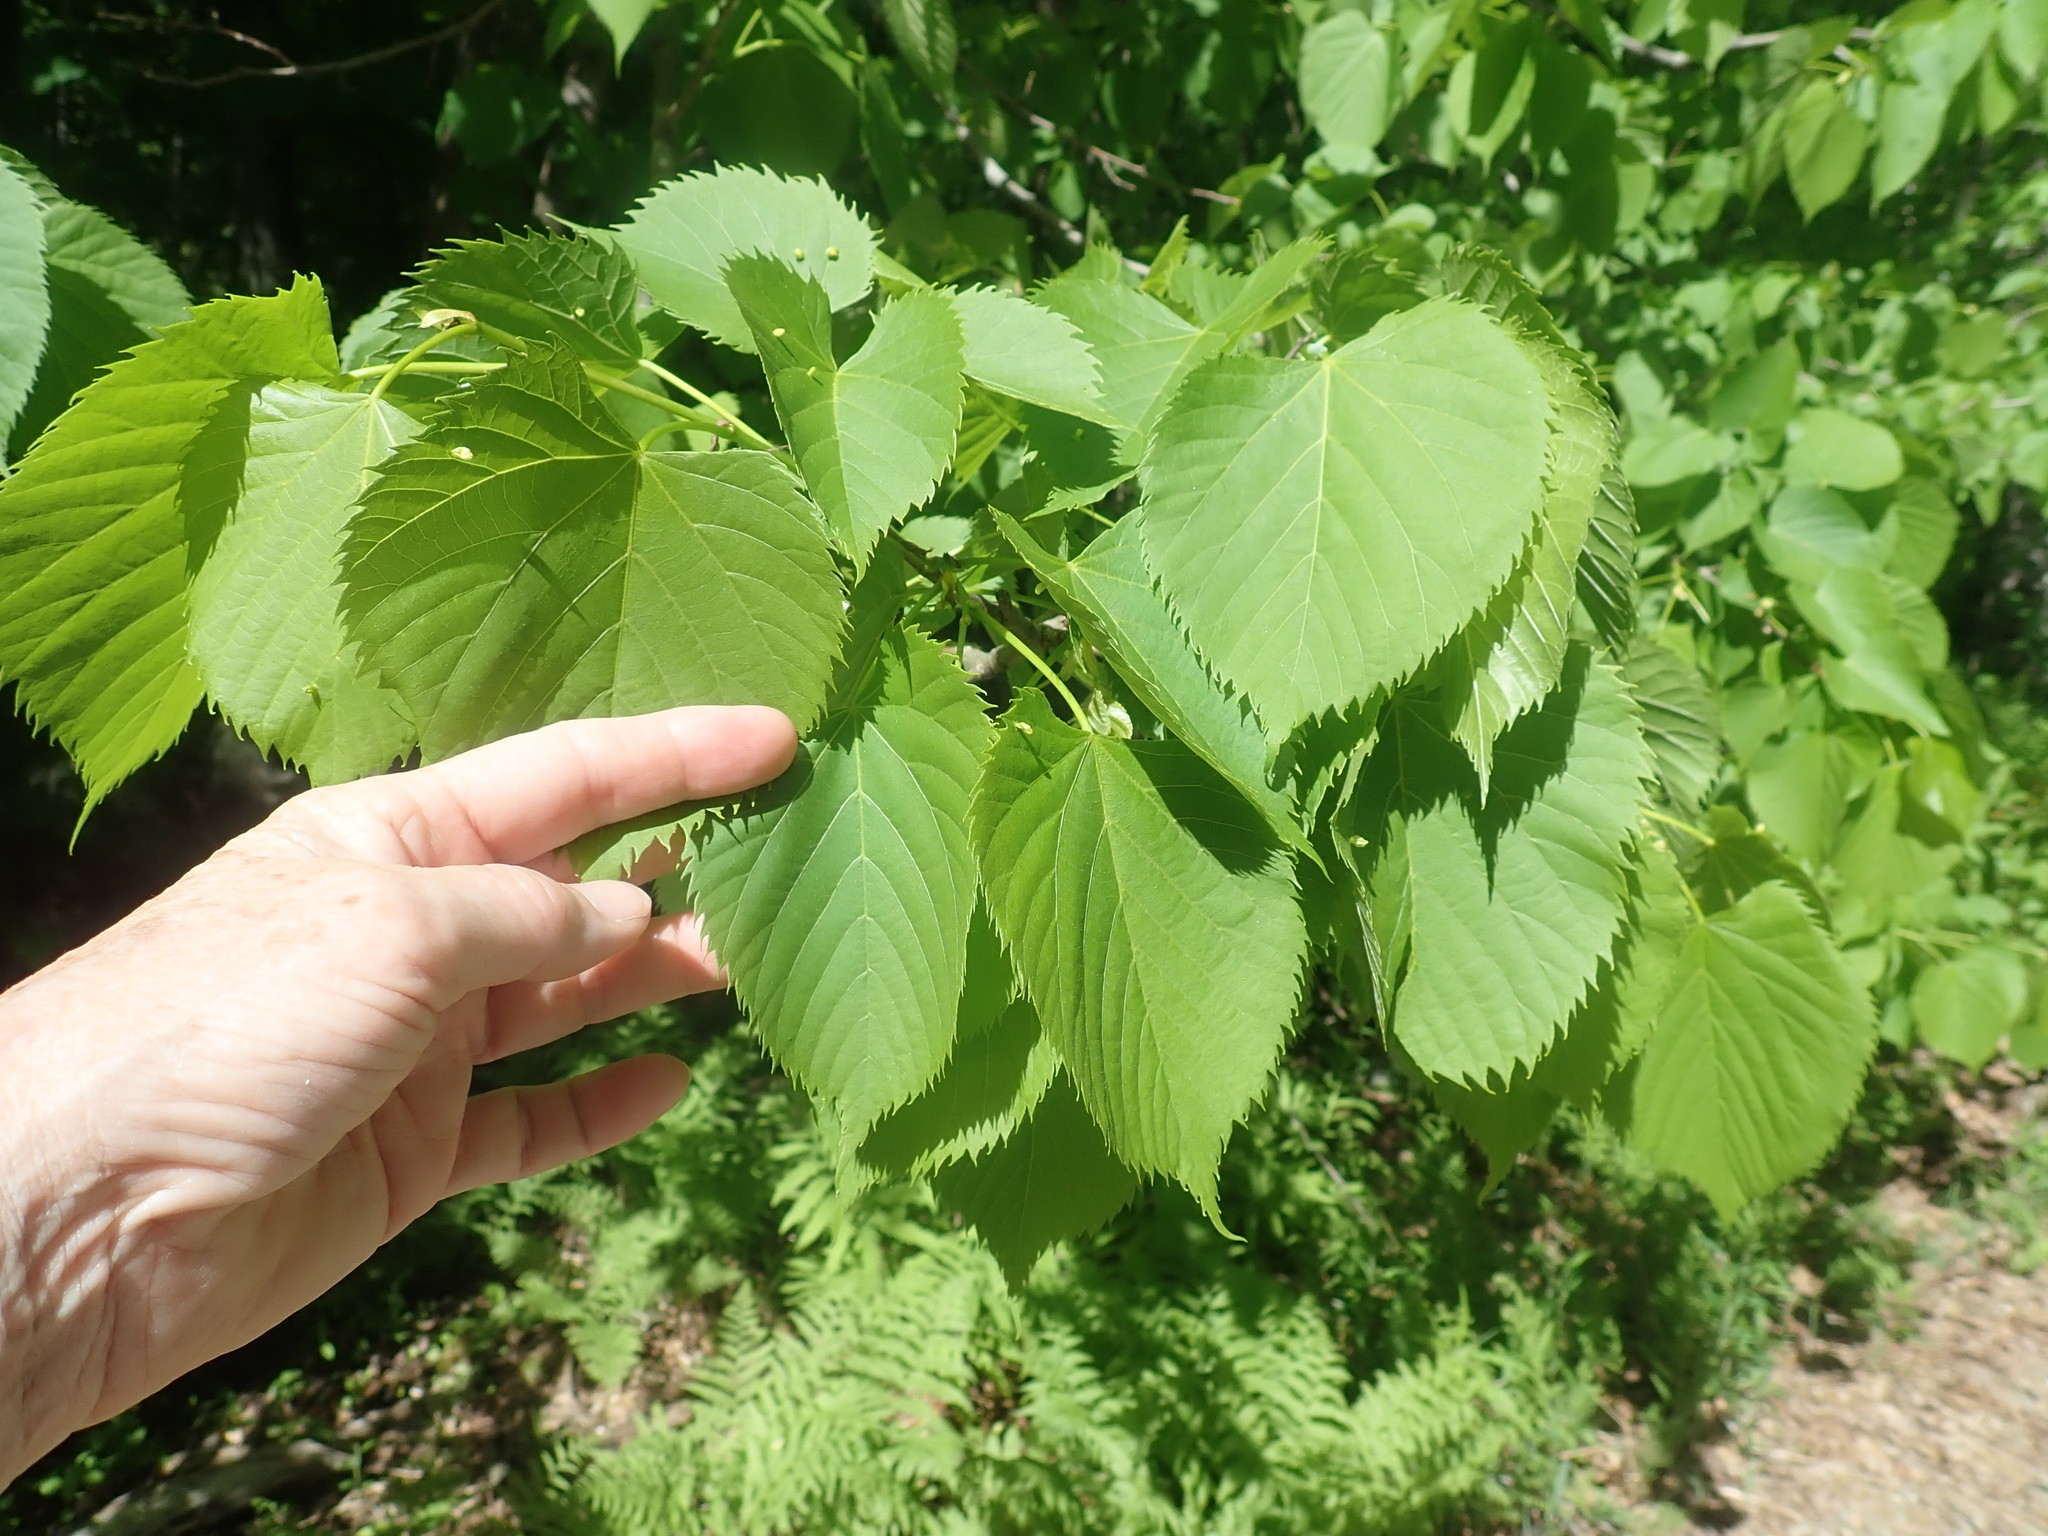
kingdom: Plantae
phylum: Tracheophyta
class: Magnoliopsida
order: Malvales
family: Malvaceae
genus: Tilia
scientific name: Tilia americana
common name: Basswood
